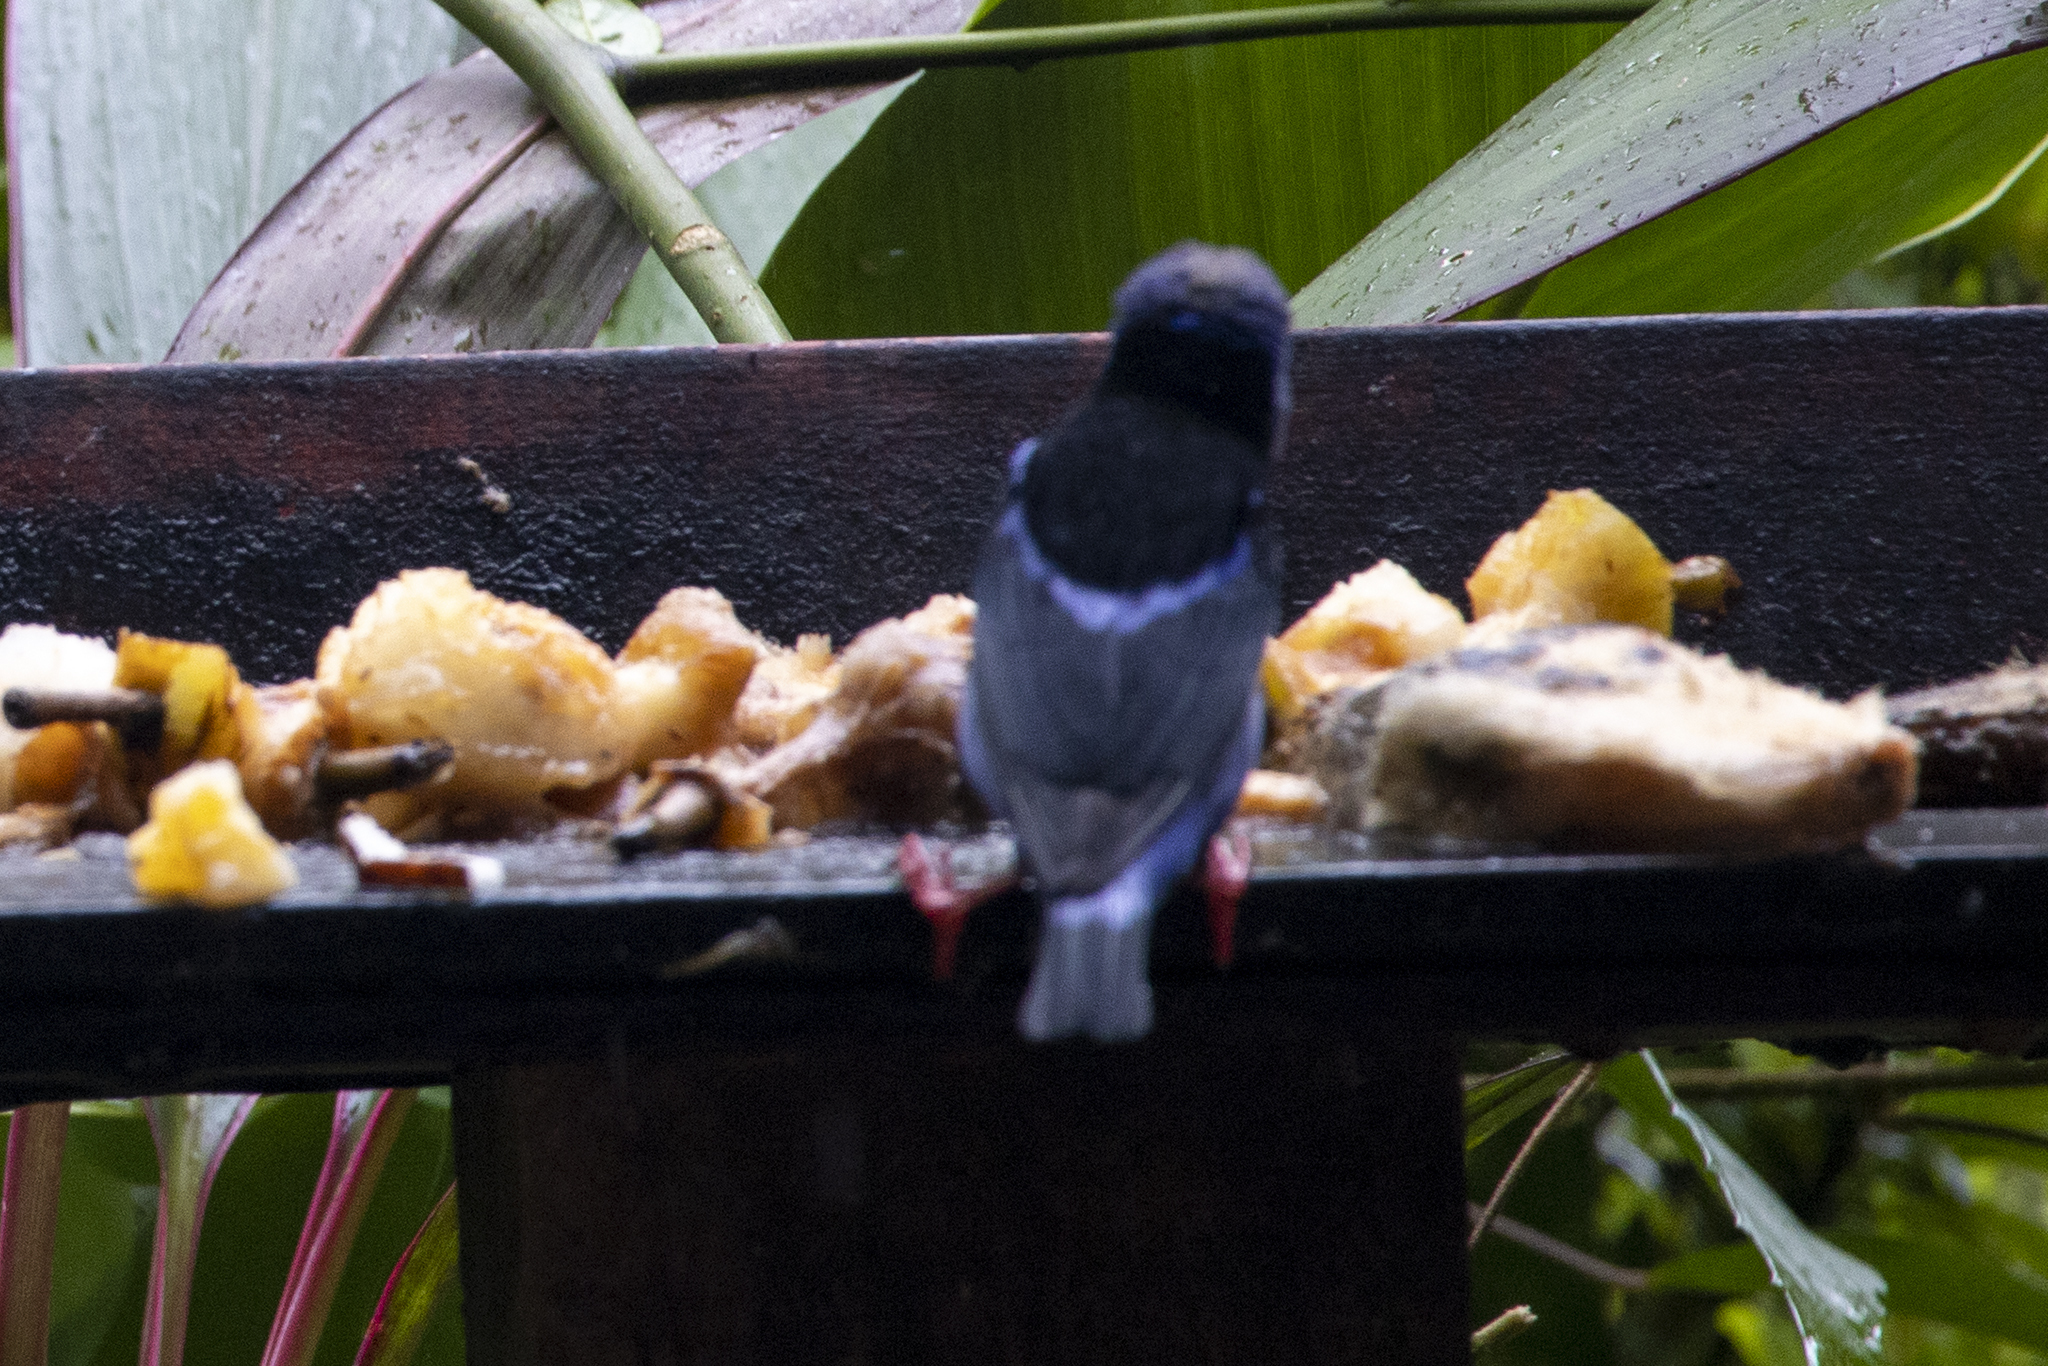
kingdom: Animalia
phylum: Chordata
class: Aves
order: Passeriformes
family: Thraupidae
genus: Cyanerpes
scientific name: Cyanerpes cyaneus
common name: Red-legged honeycreeper
